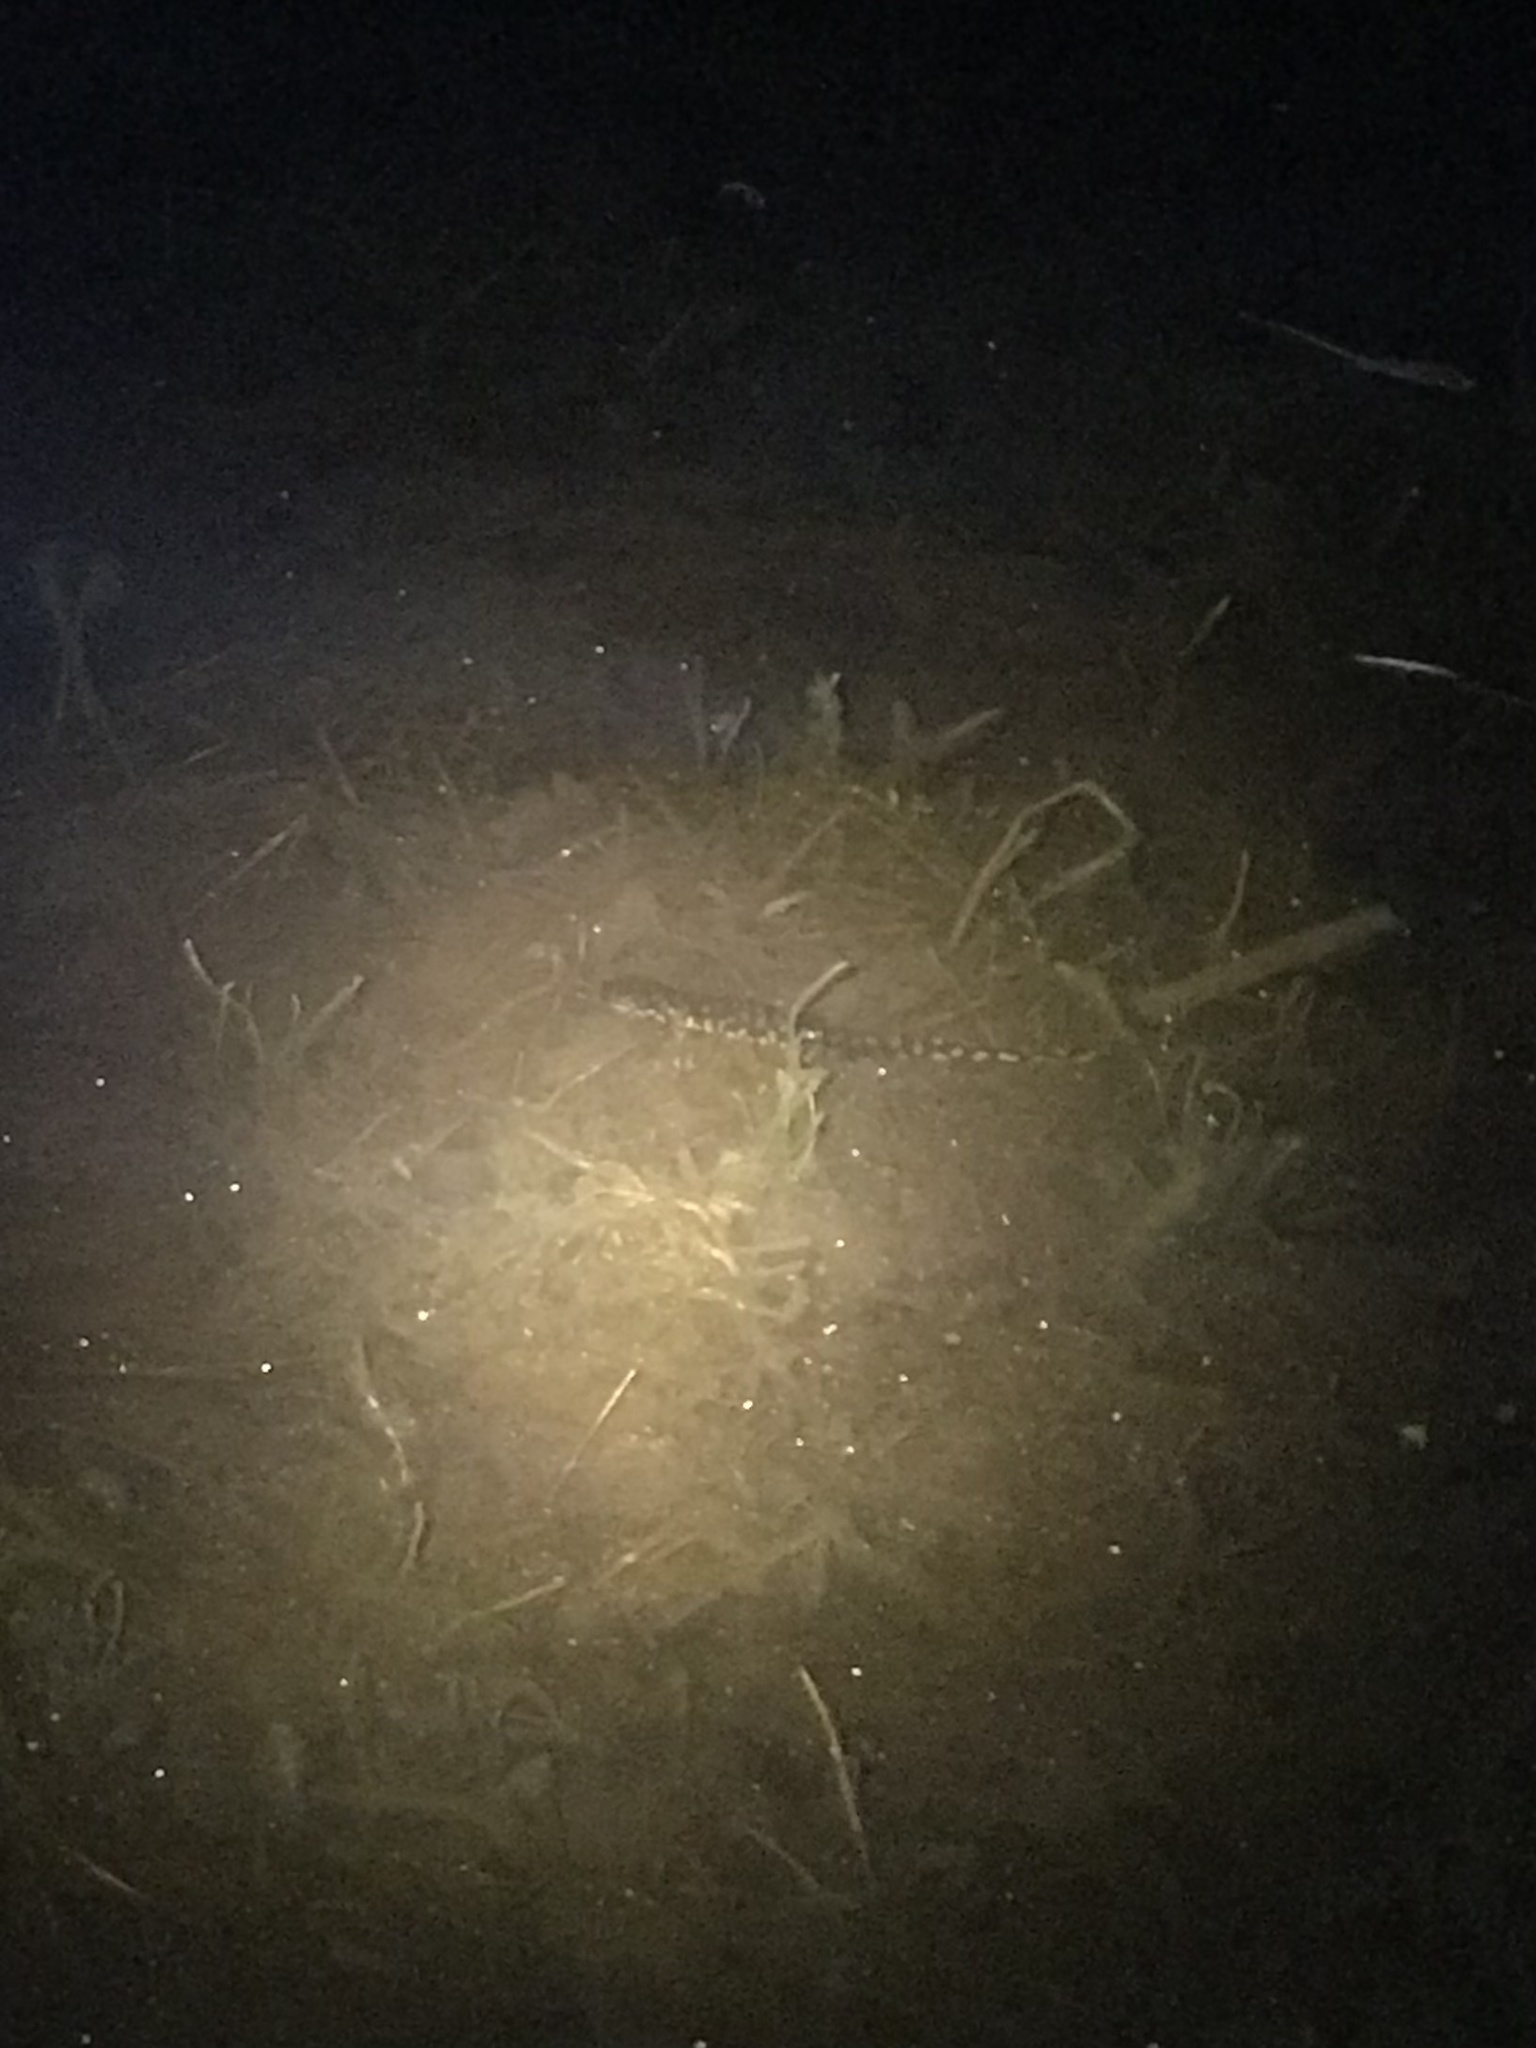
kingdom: Animalia
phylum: Chordata
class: Amphibia
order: Caudata
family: Ambystomatidae
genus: Ambystoma
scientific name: Ambystoma tigrinum
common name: Tiger salamander
